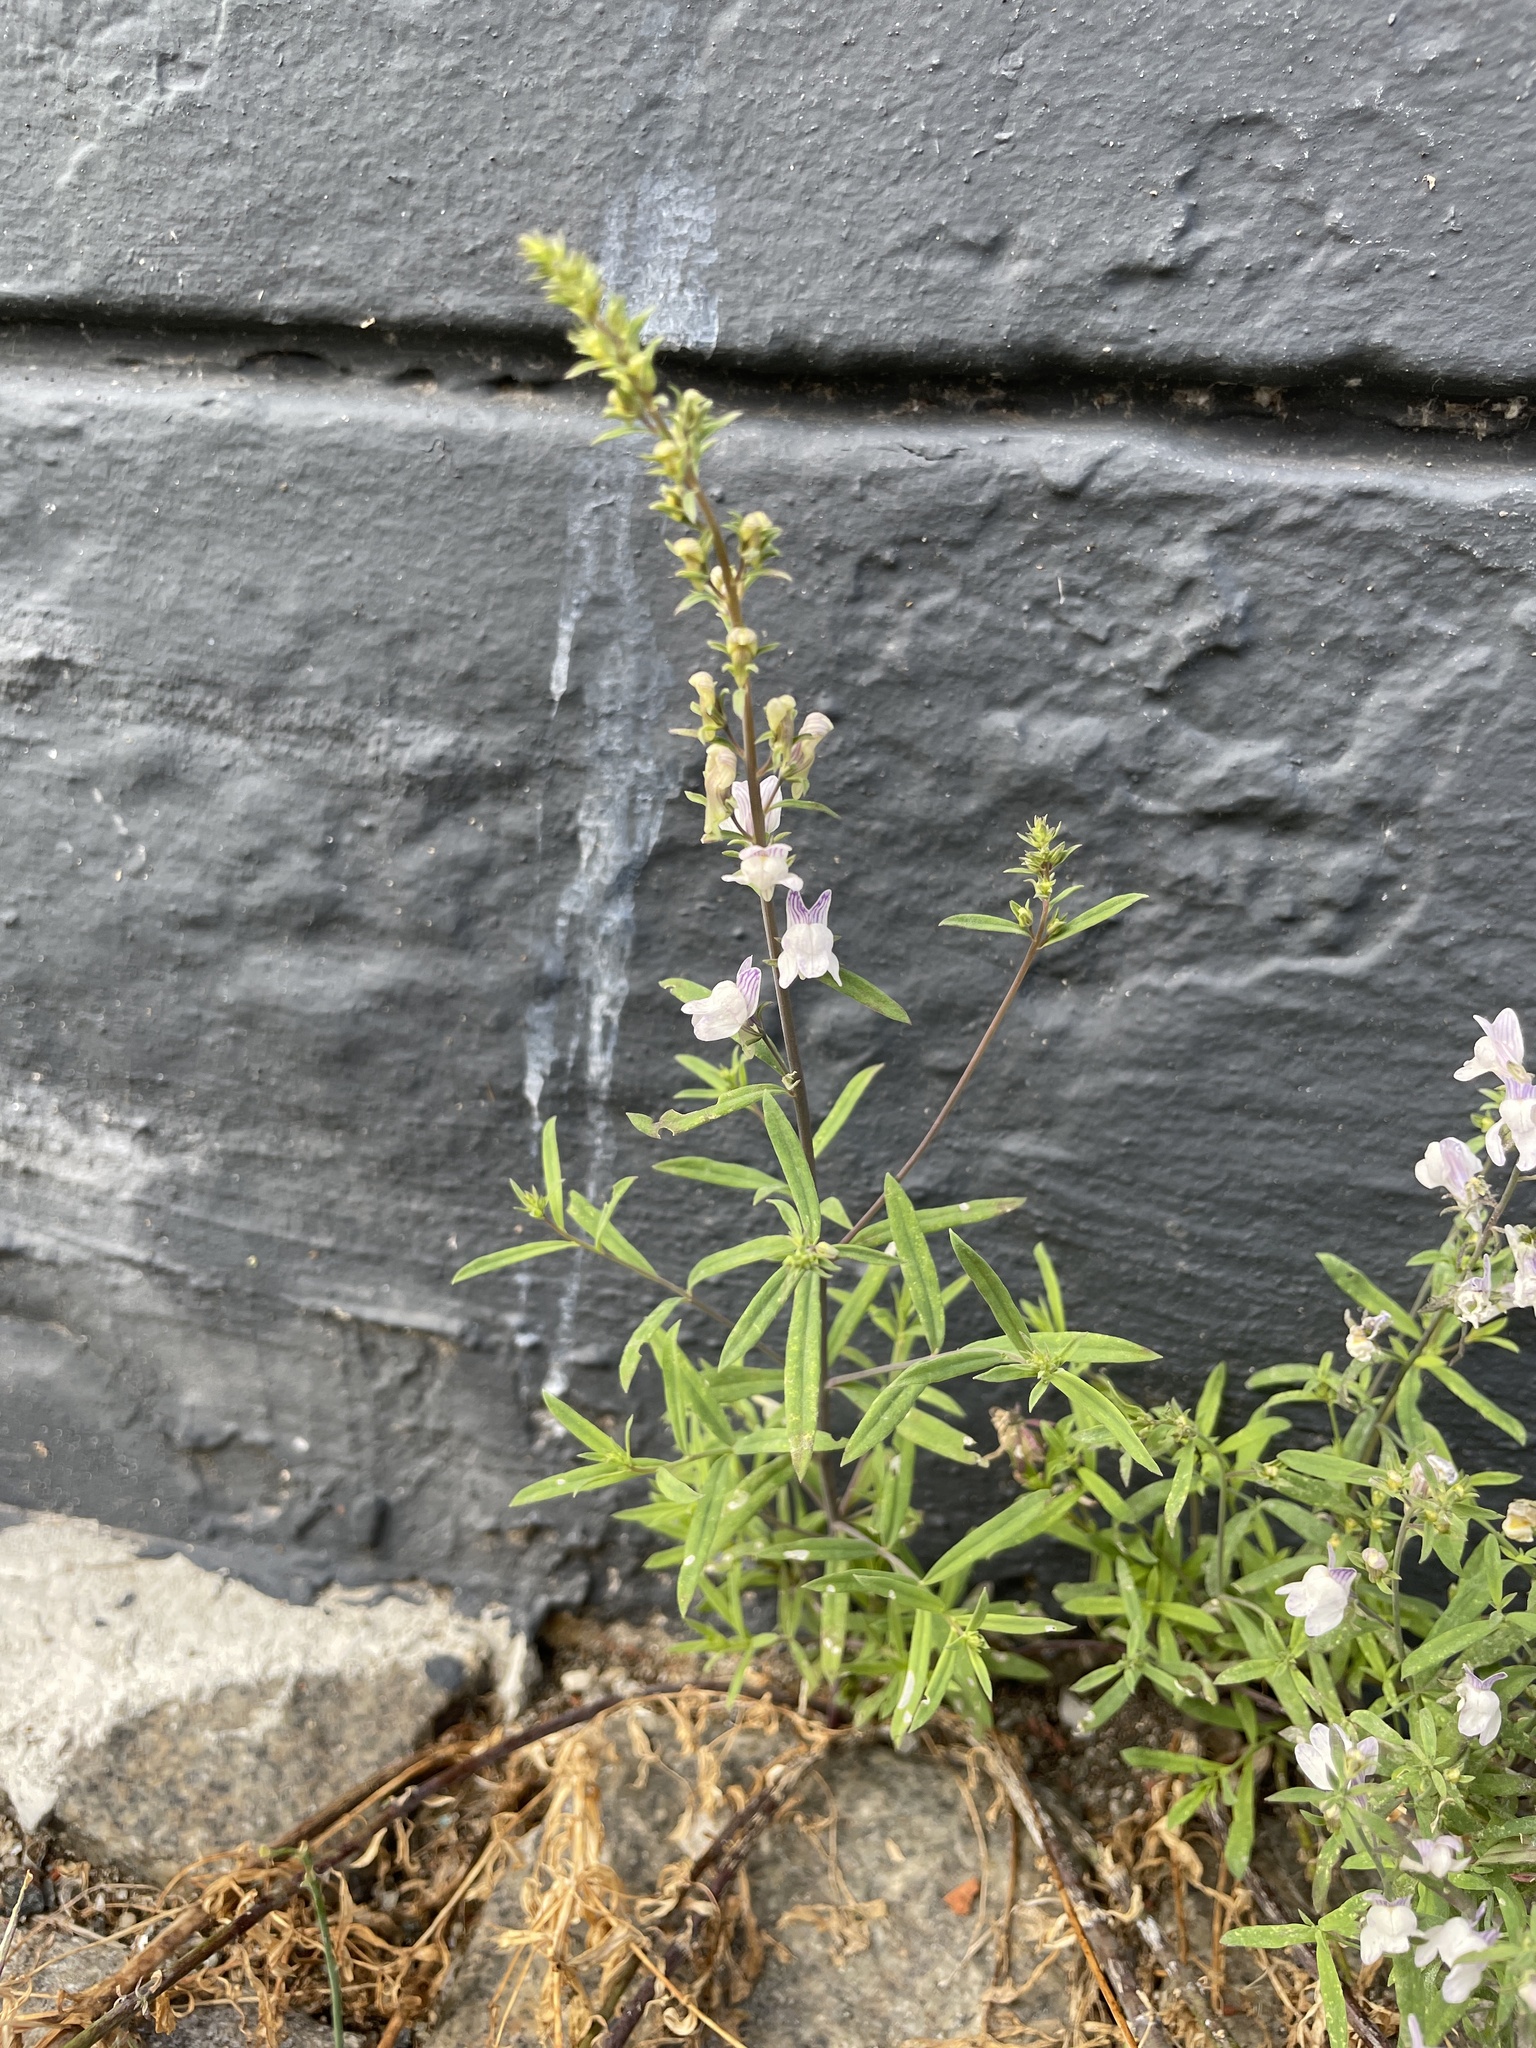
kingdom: Plantae
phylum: Tracheophyta
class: Magnoliopsida
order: Lamiales
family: Plantaginaceae
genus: Linaria
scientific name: Linaria repens
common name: Pale toadflax
